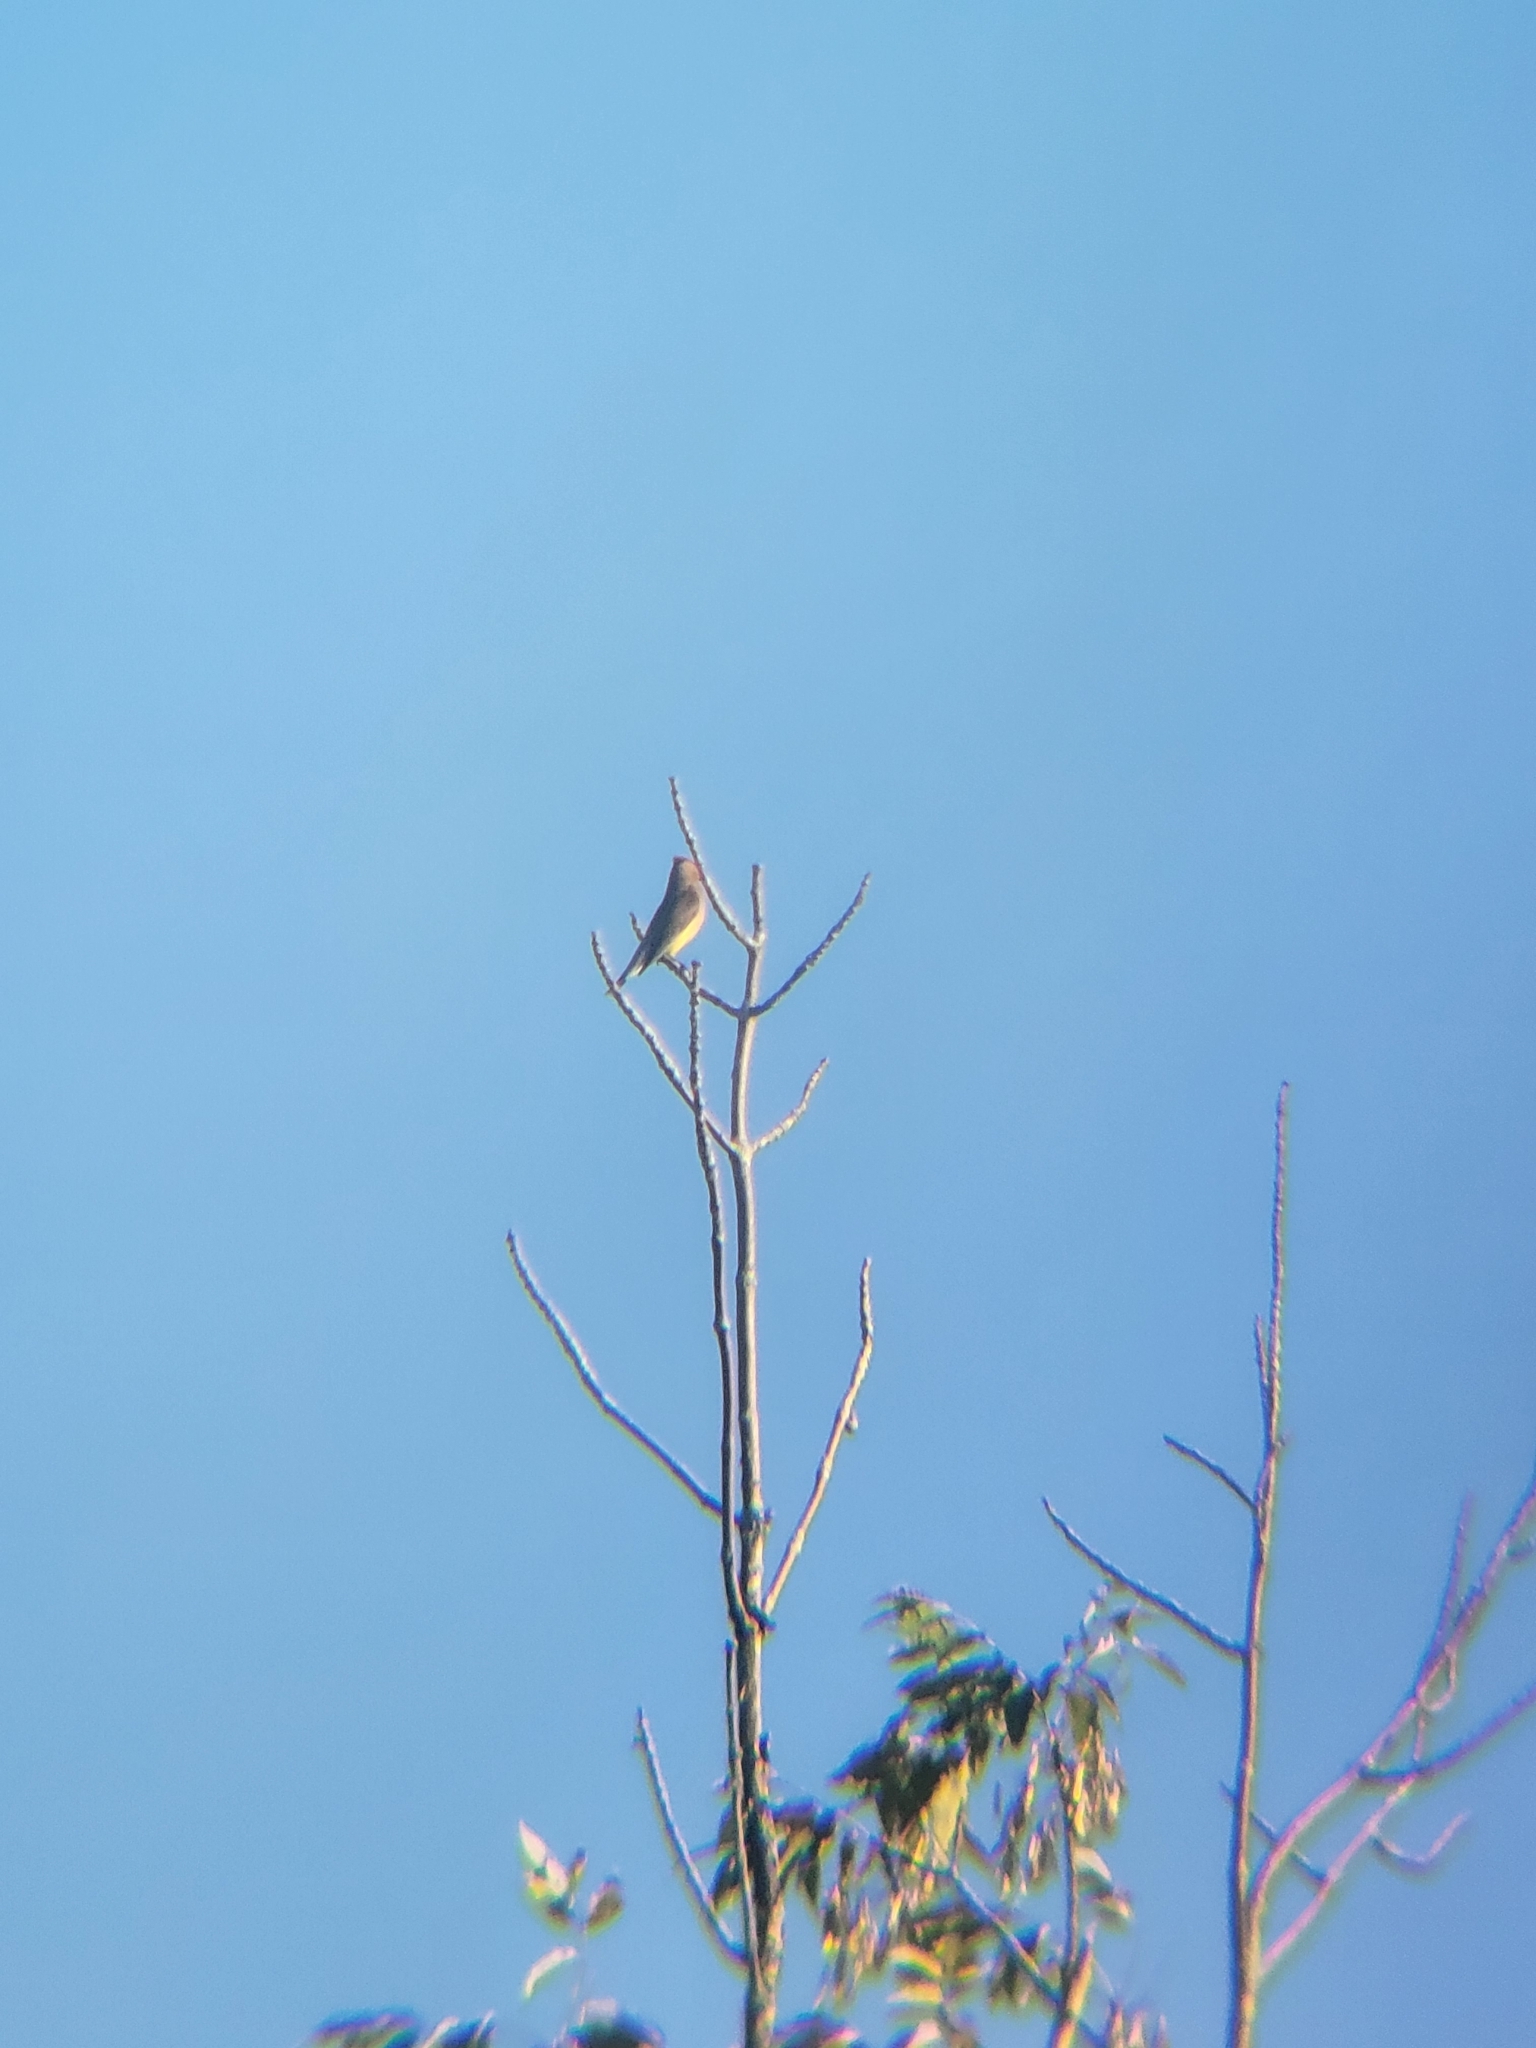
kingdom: Animalia
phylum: Chordata
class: Aves
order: Passeriformes
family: Bombycillidae
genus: Bombycilla
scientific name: Bombycilla cedrorum
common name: Cedar waxwing
